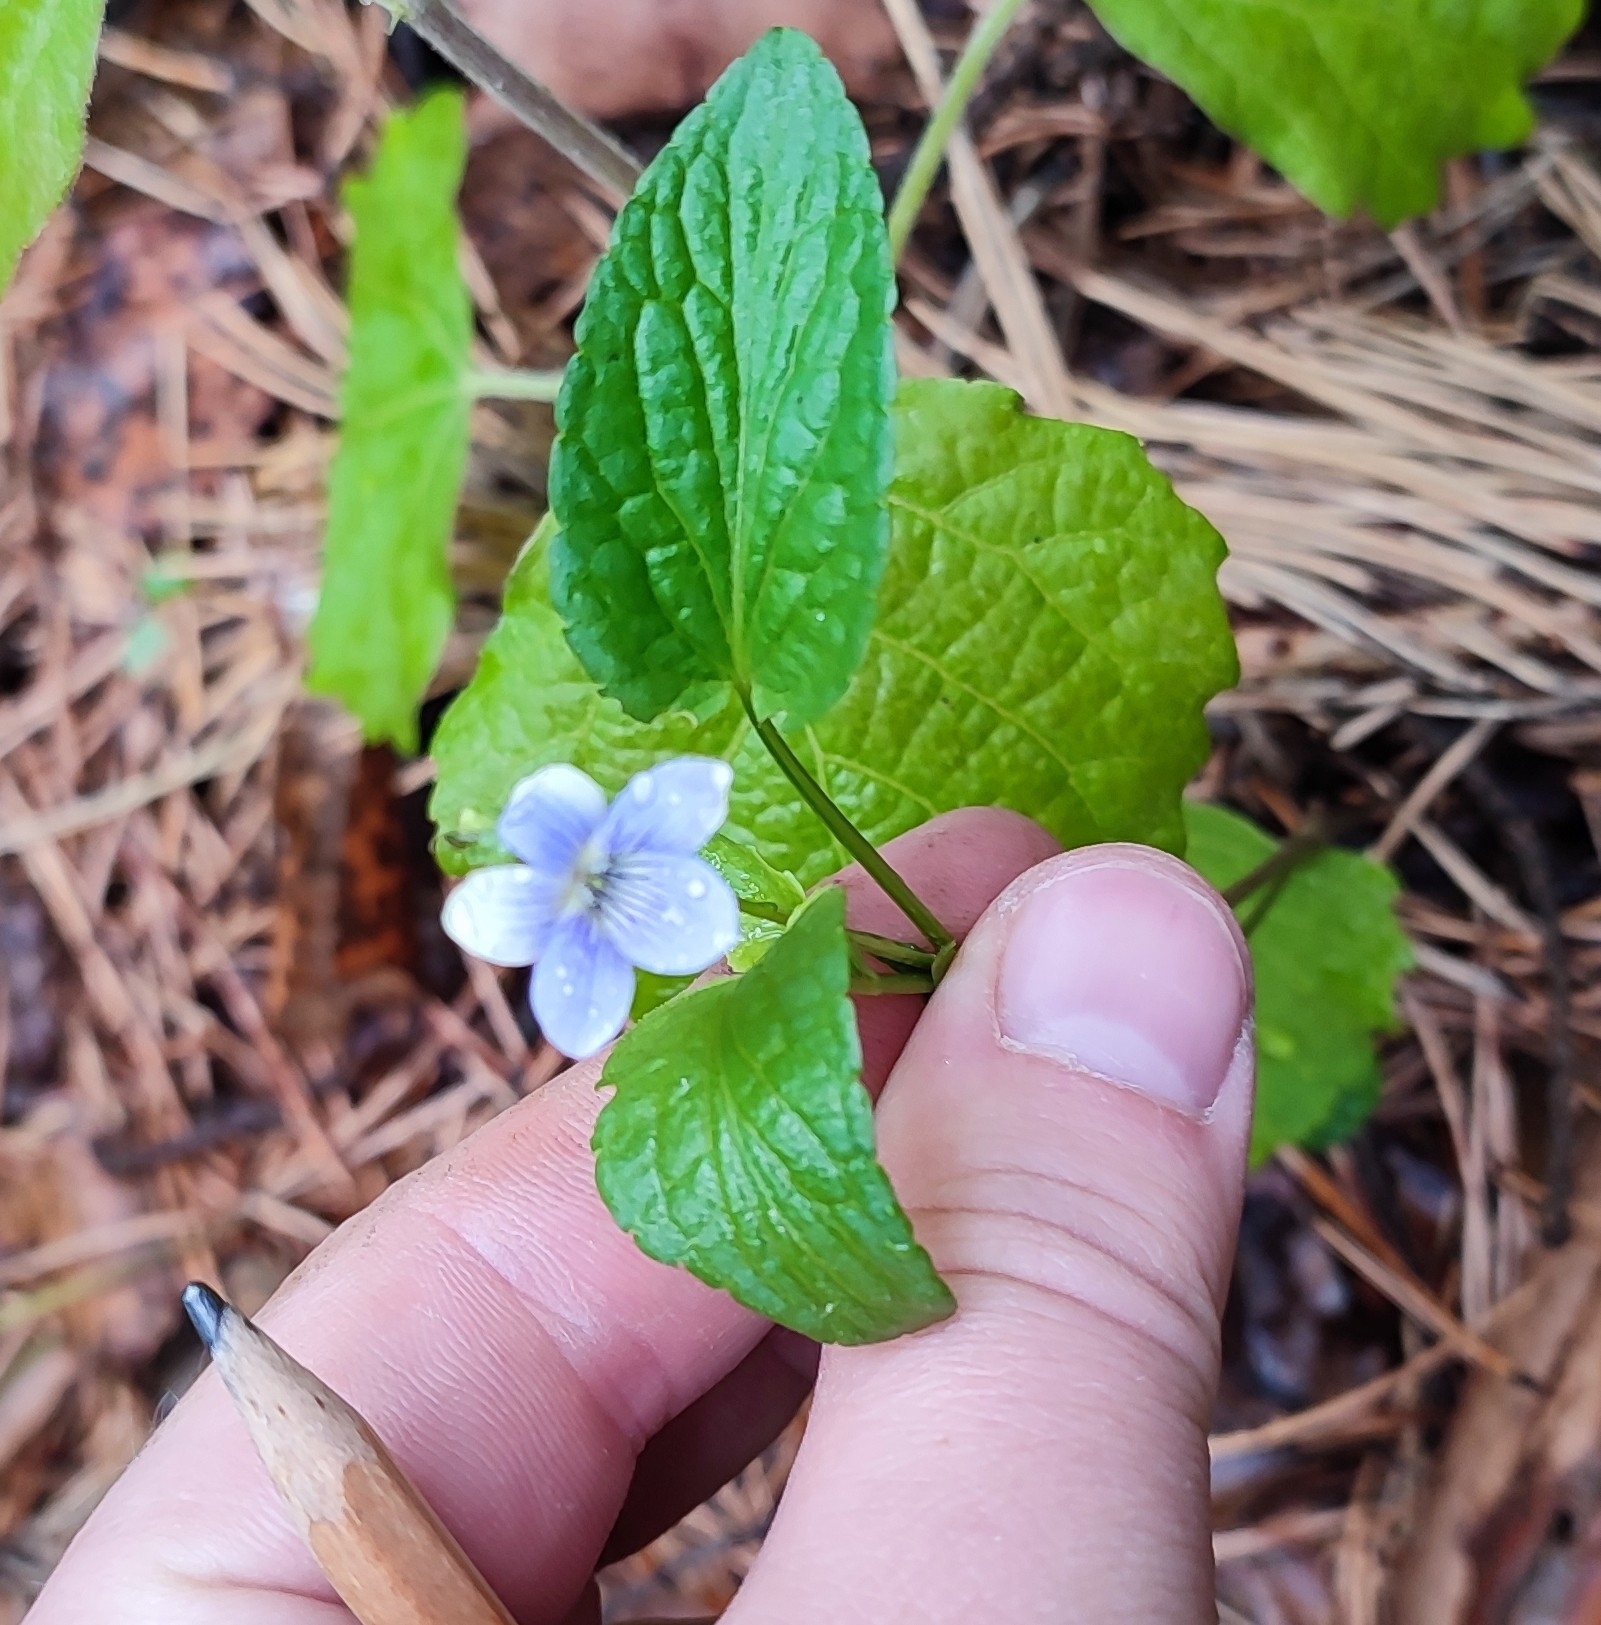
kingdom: Plantae
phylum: Tracheophyta
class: Magnoliopsida
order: Malpighiales
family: Violaceae
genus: Viola
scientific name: Viola
